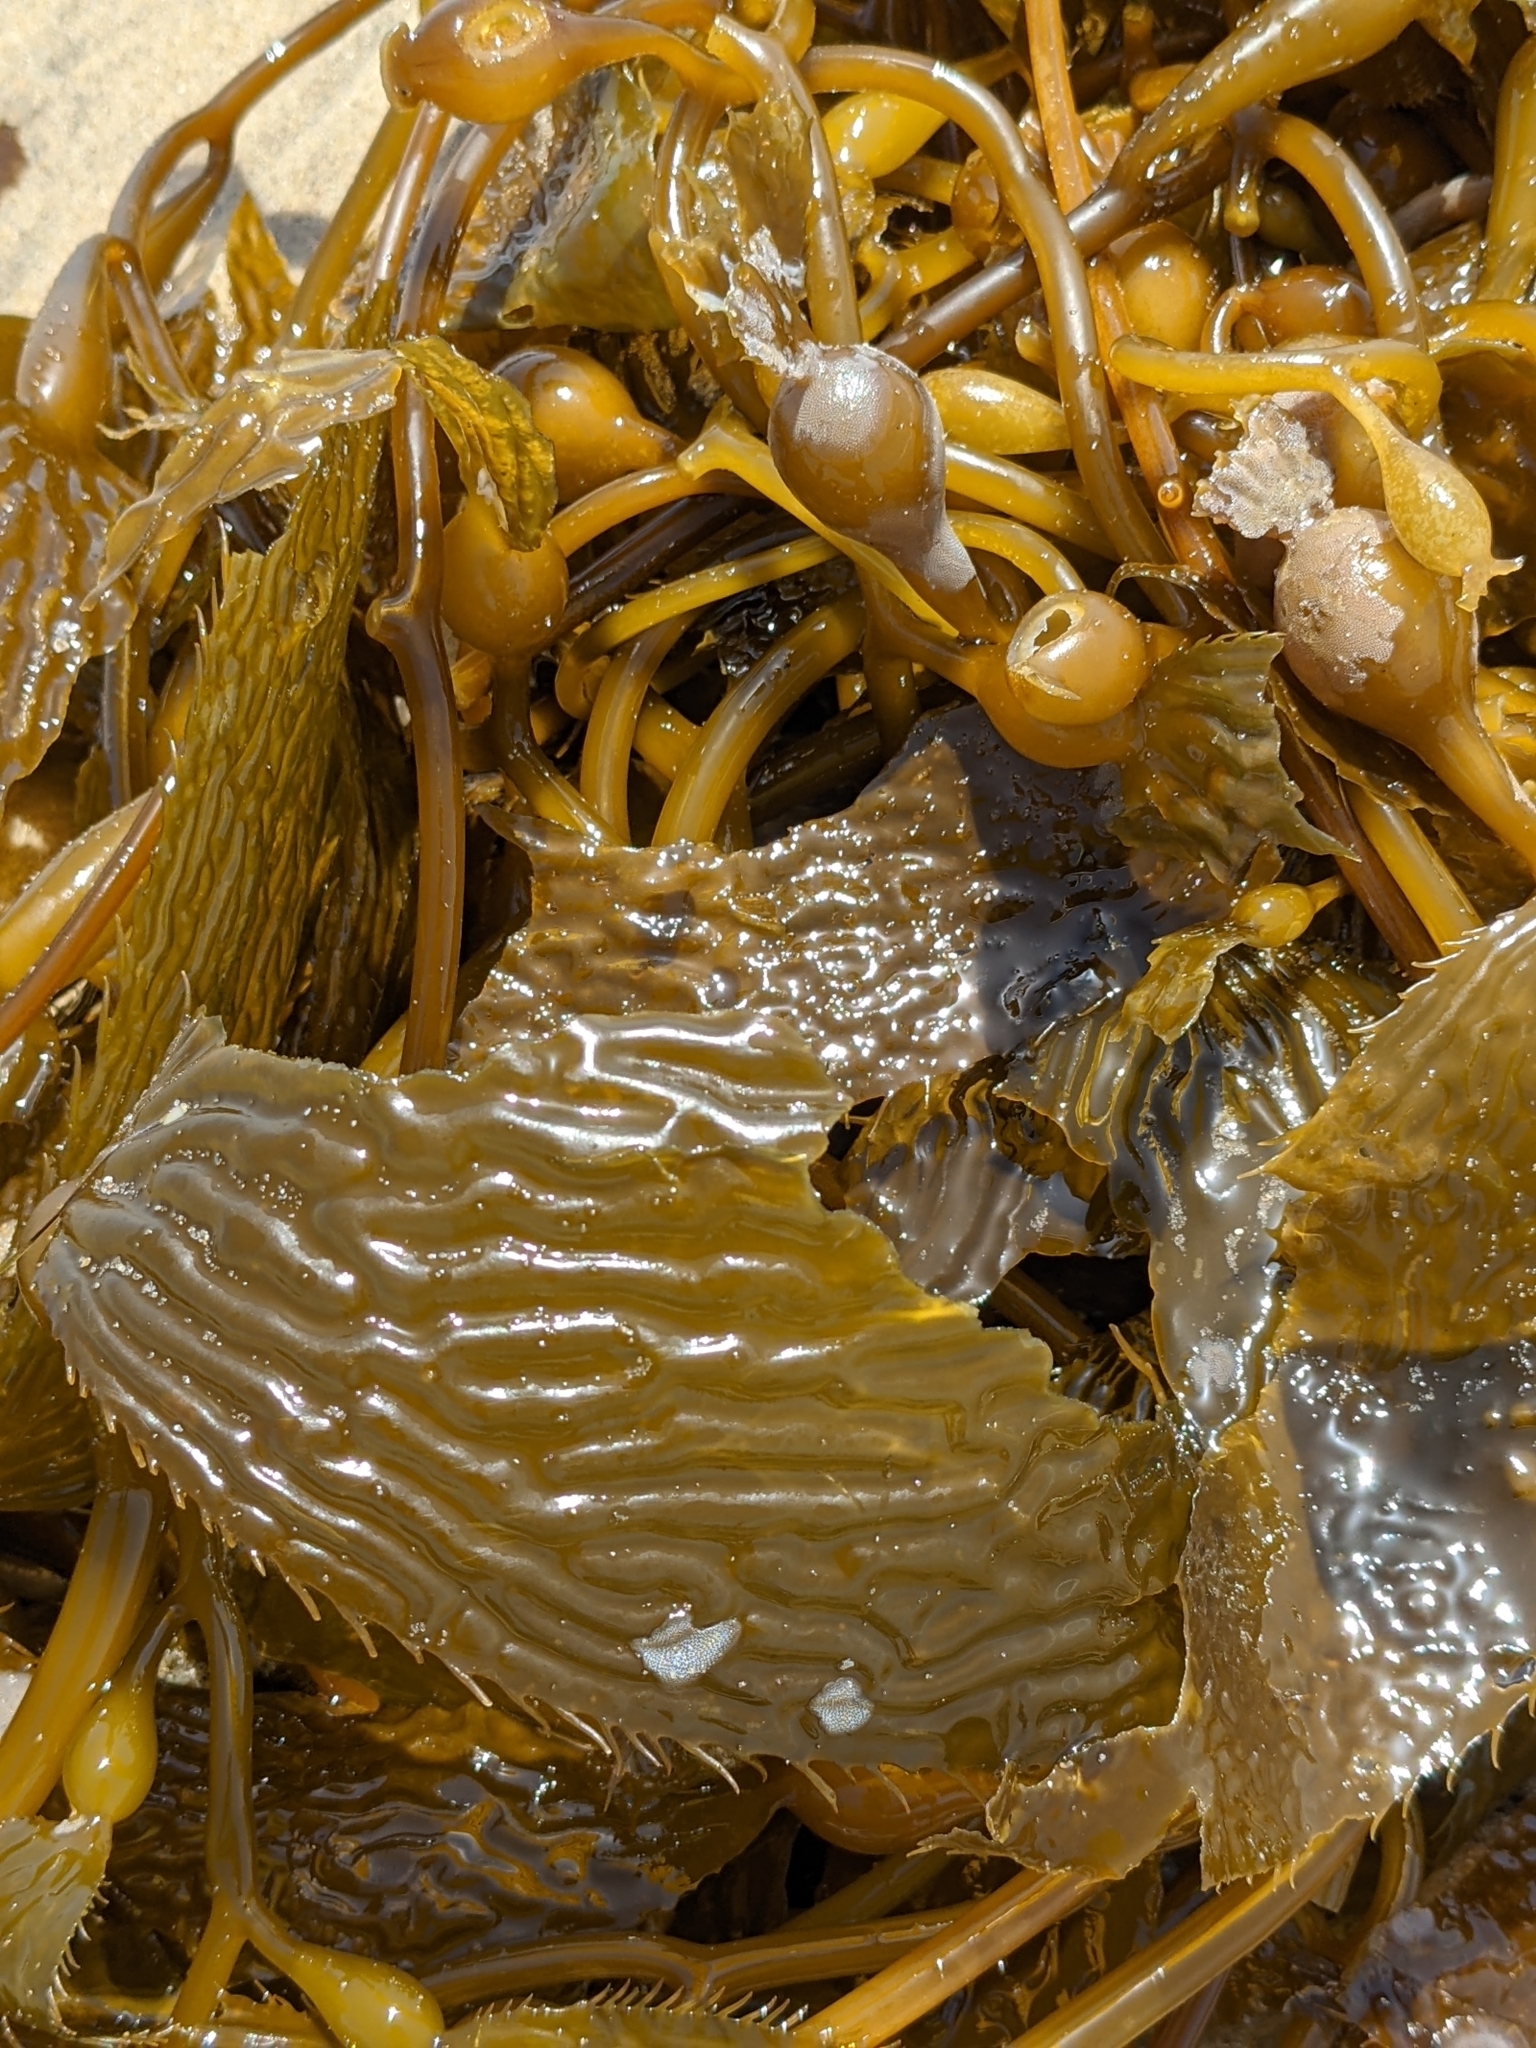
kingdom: Chromista
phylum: Ochrophyta
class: Phaeophyceae
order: Laminariales
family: Laminariaceae
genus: Macrocystis
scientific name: Macrocystis pyrifera
